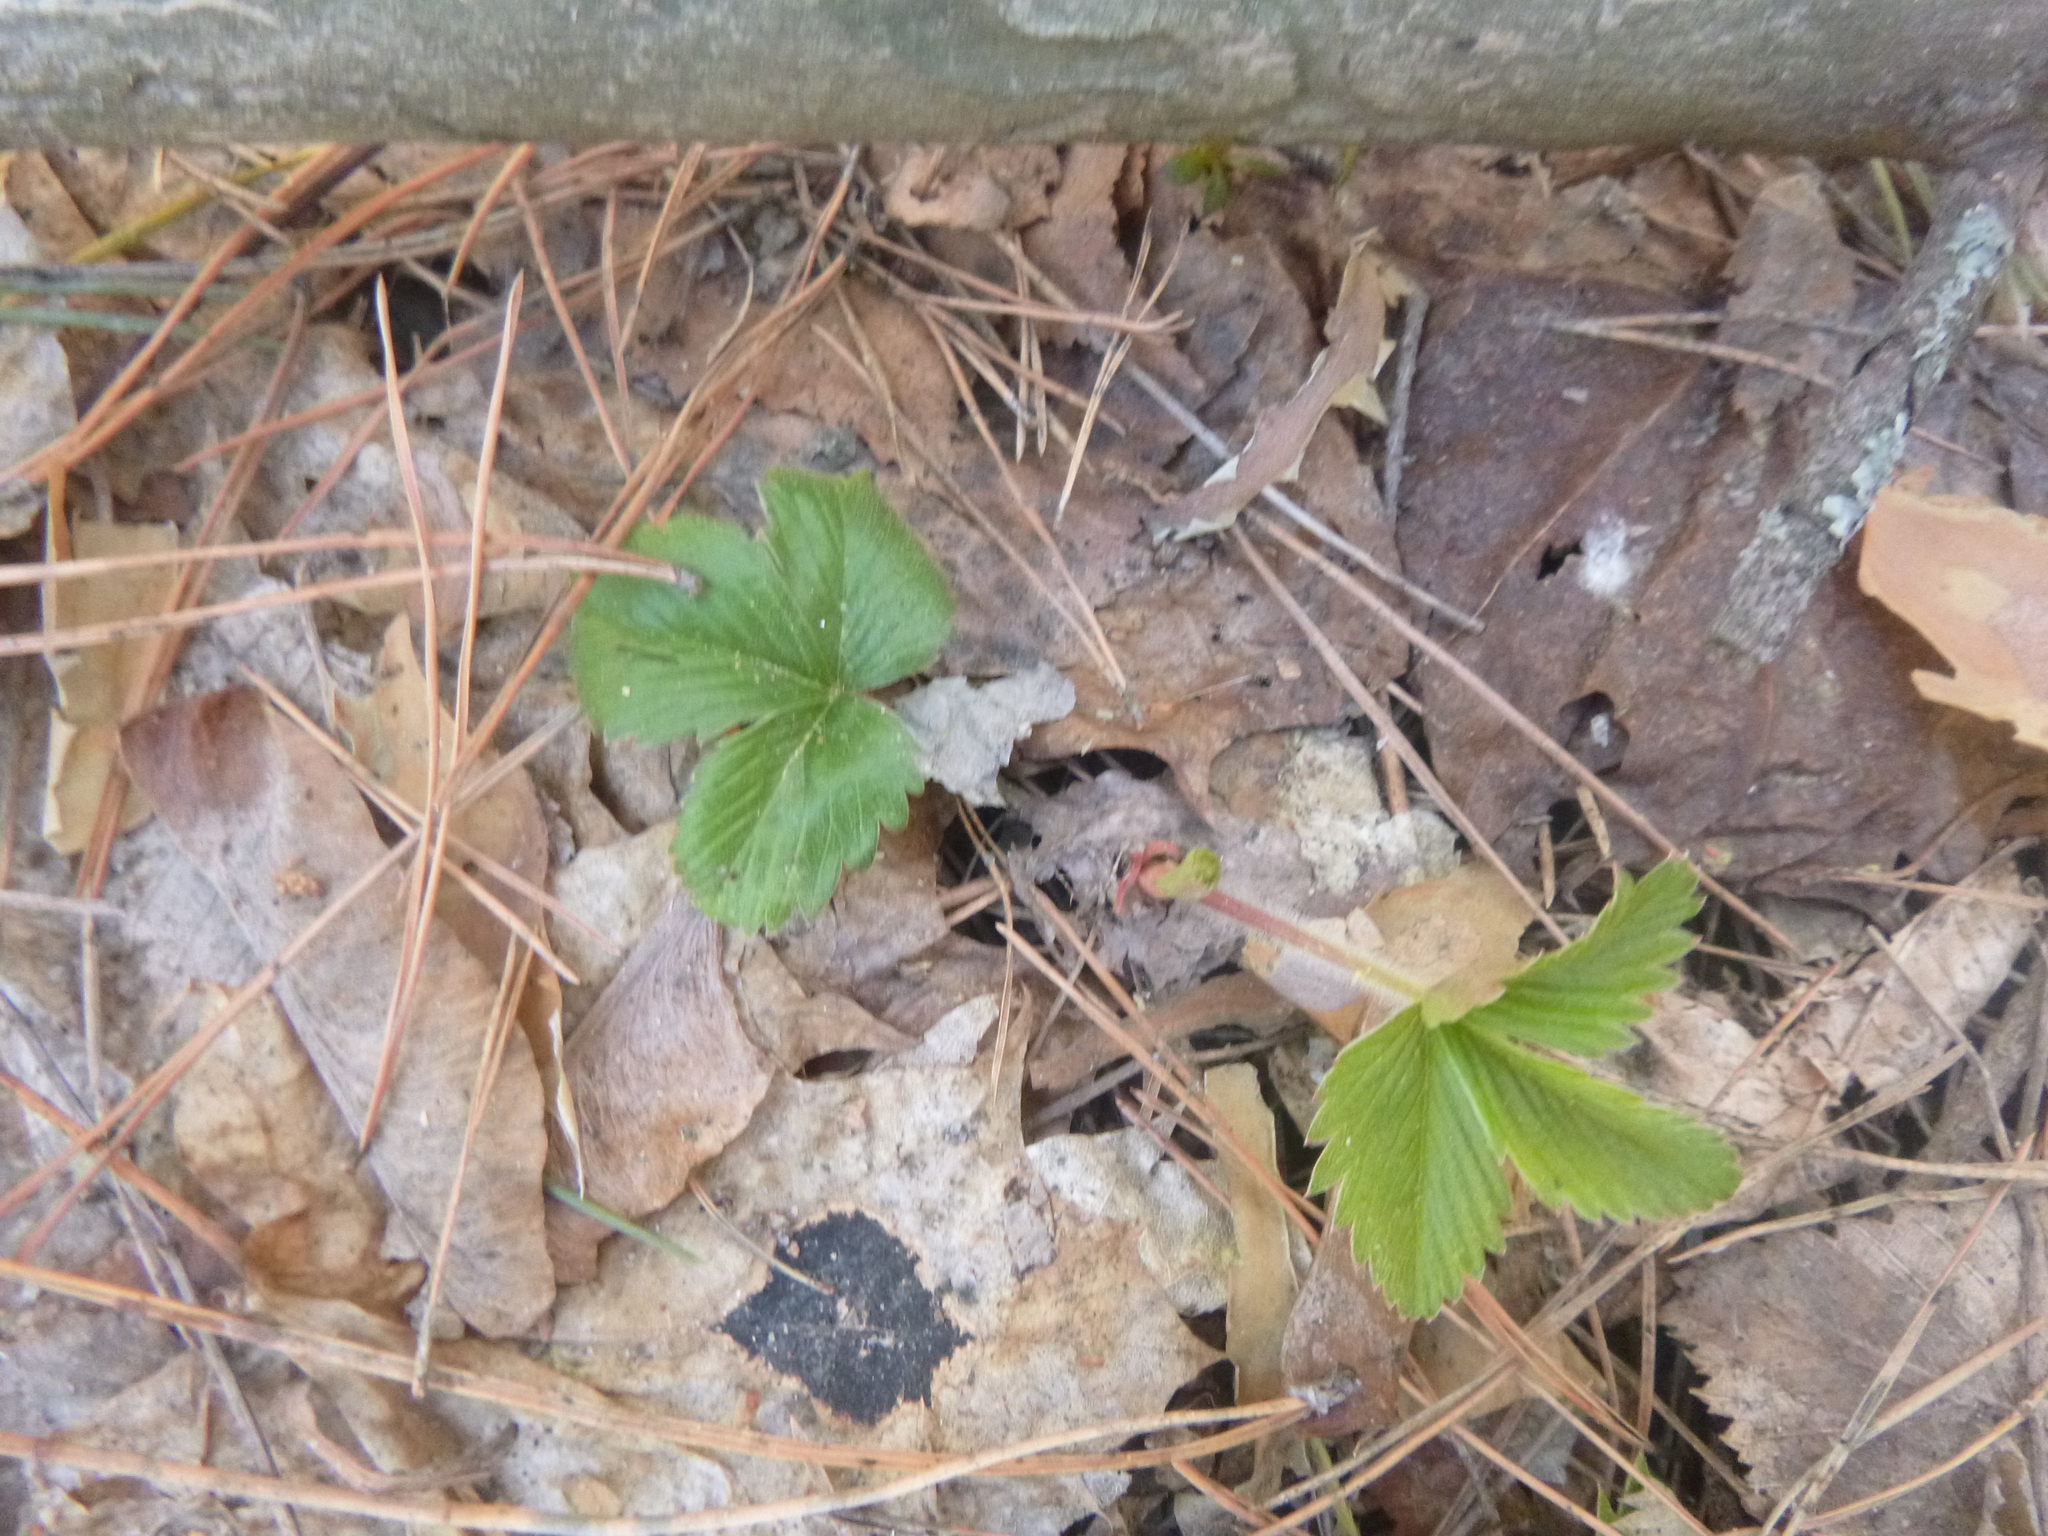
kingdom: Plantae
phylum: Tracheophyta
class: Magnoliopsida
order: Rosales
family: Rosaceae
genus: Fragaria
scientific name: Fragaria vesca
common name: Wild strawberry
